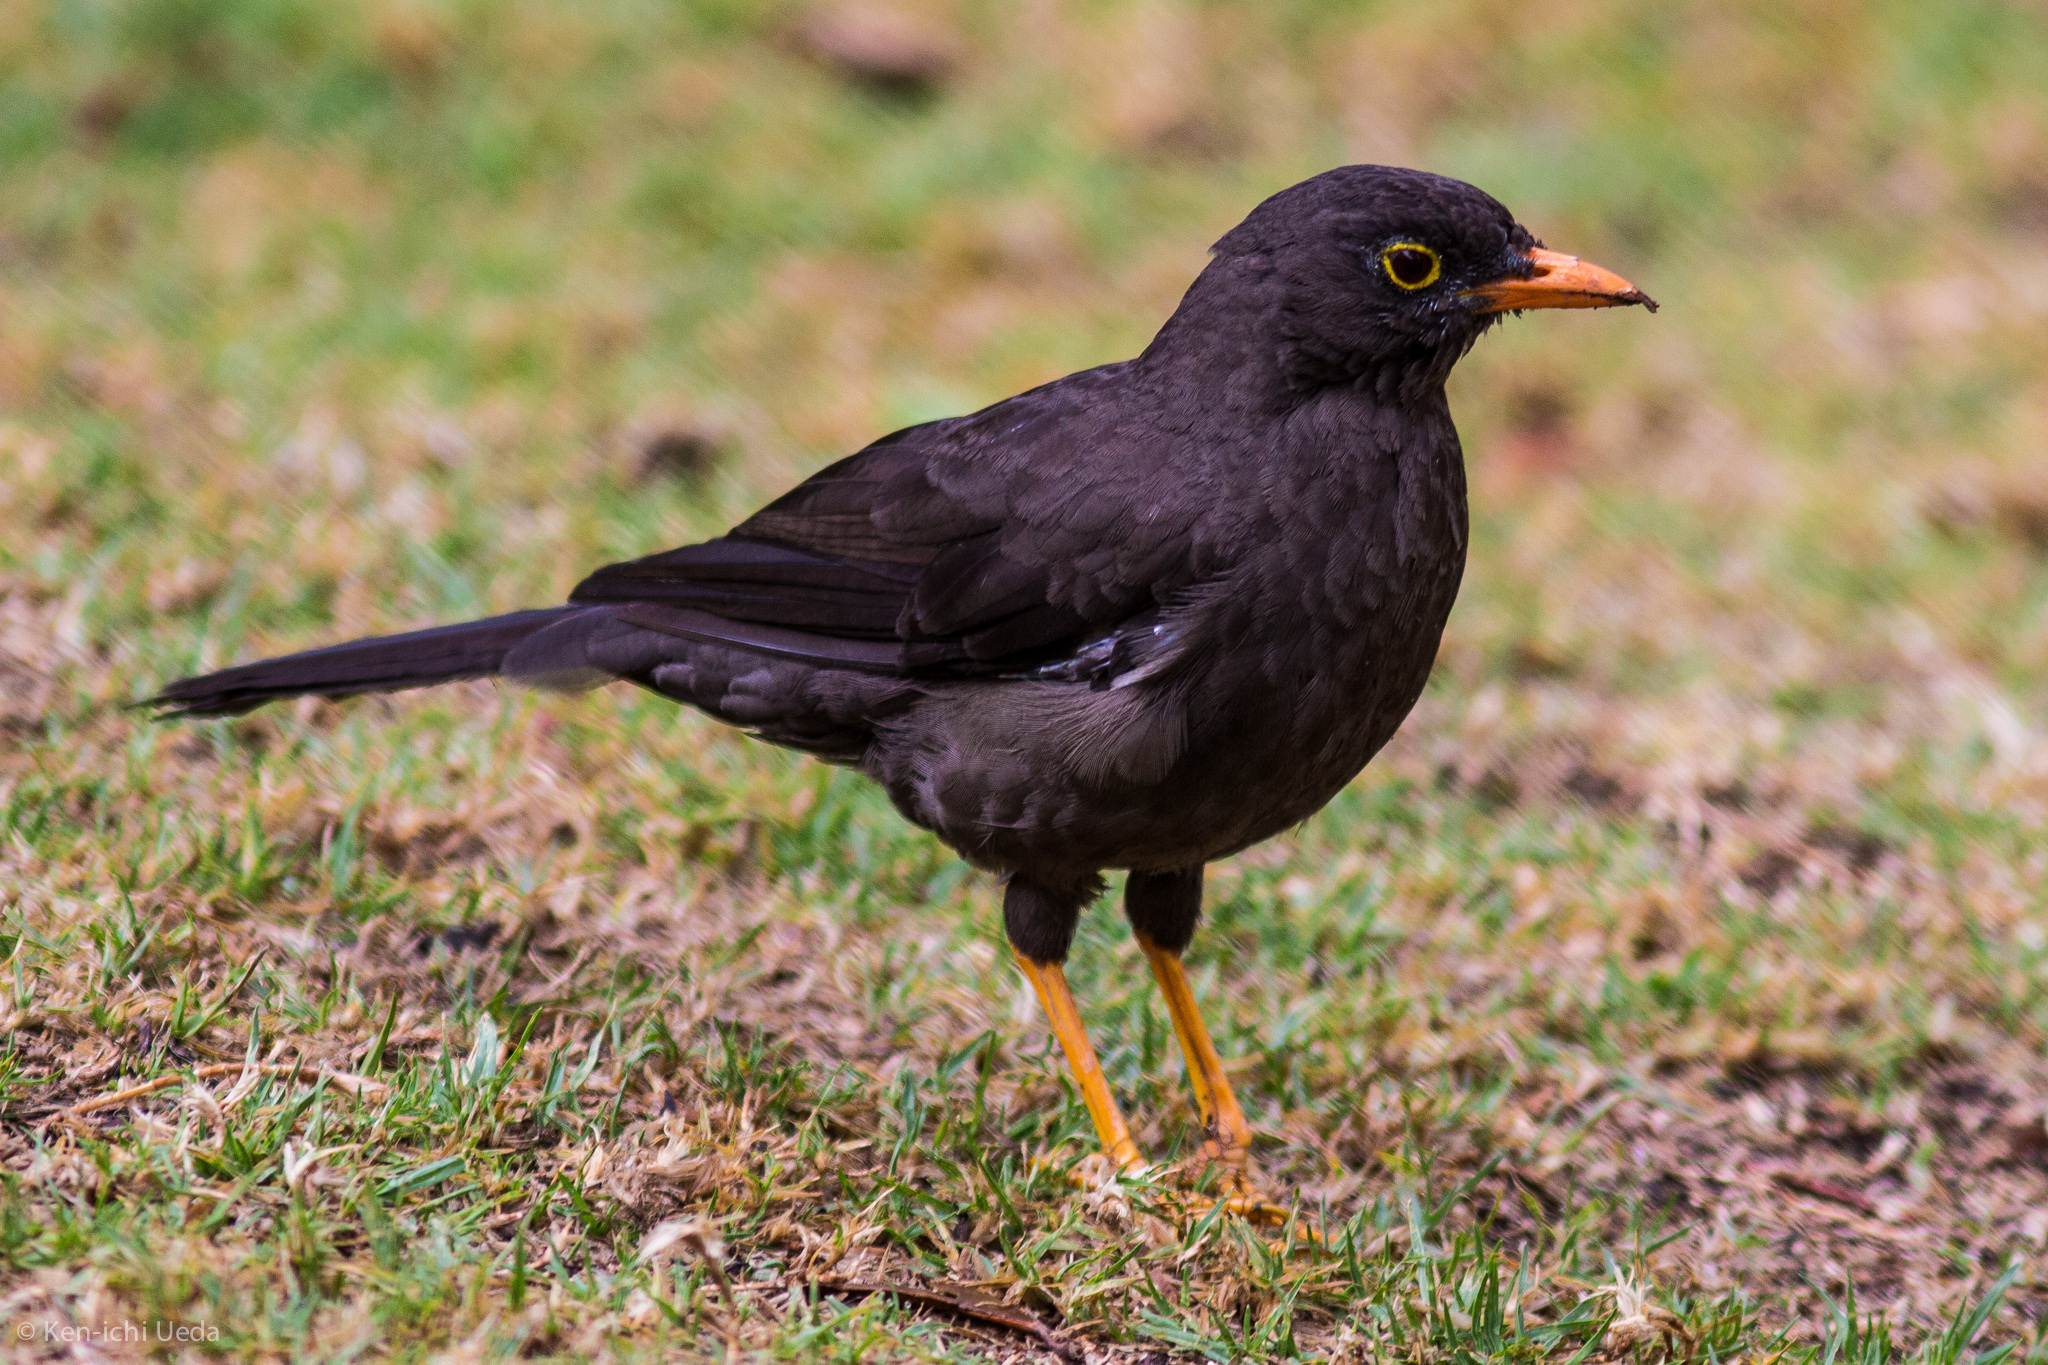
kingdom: Animalia
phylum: Chordata
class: Aves
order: Passeriformes
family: Turdidae
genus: Turdus
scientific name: Turdus fuscater
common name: Great thrush
